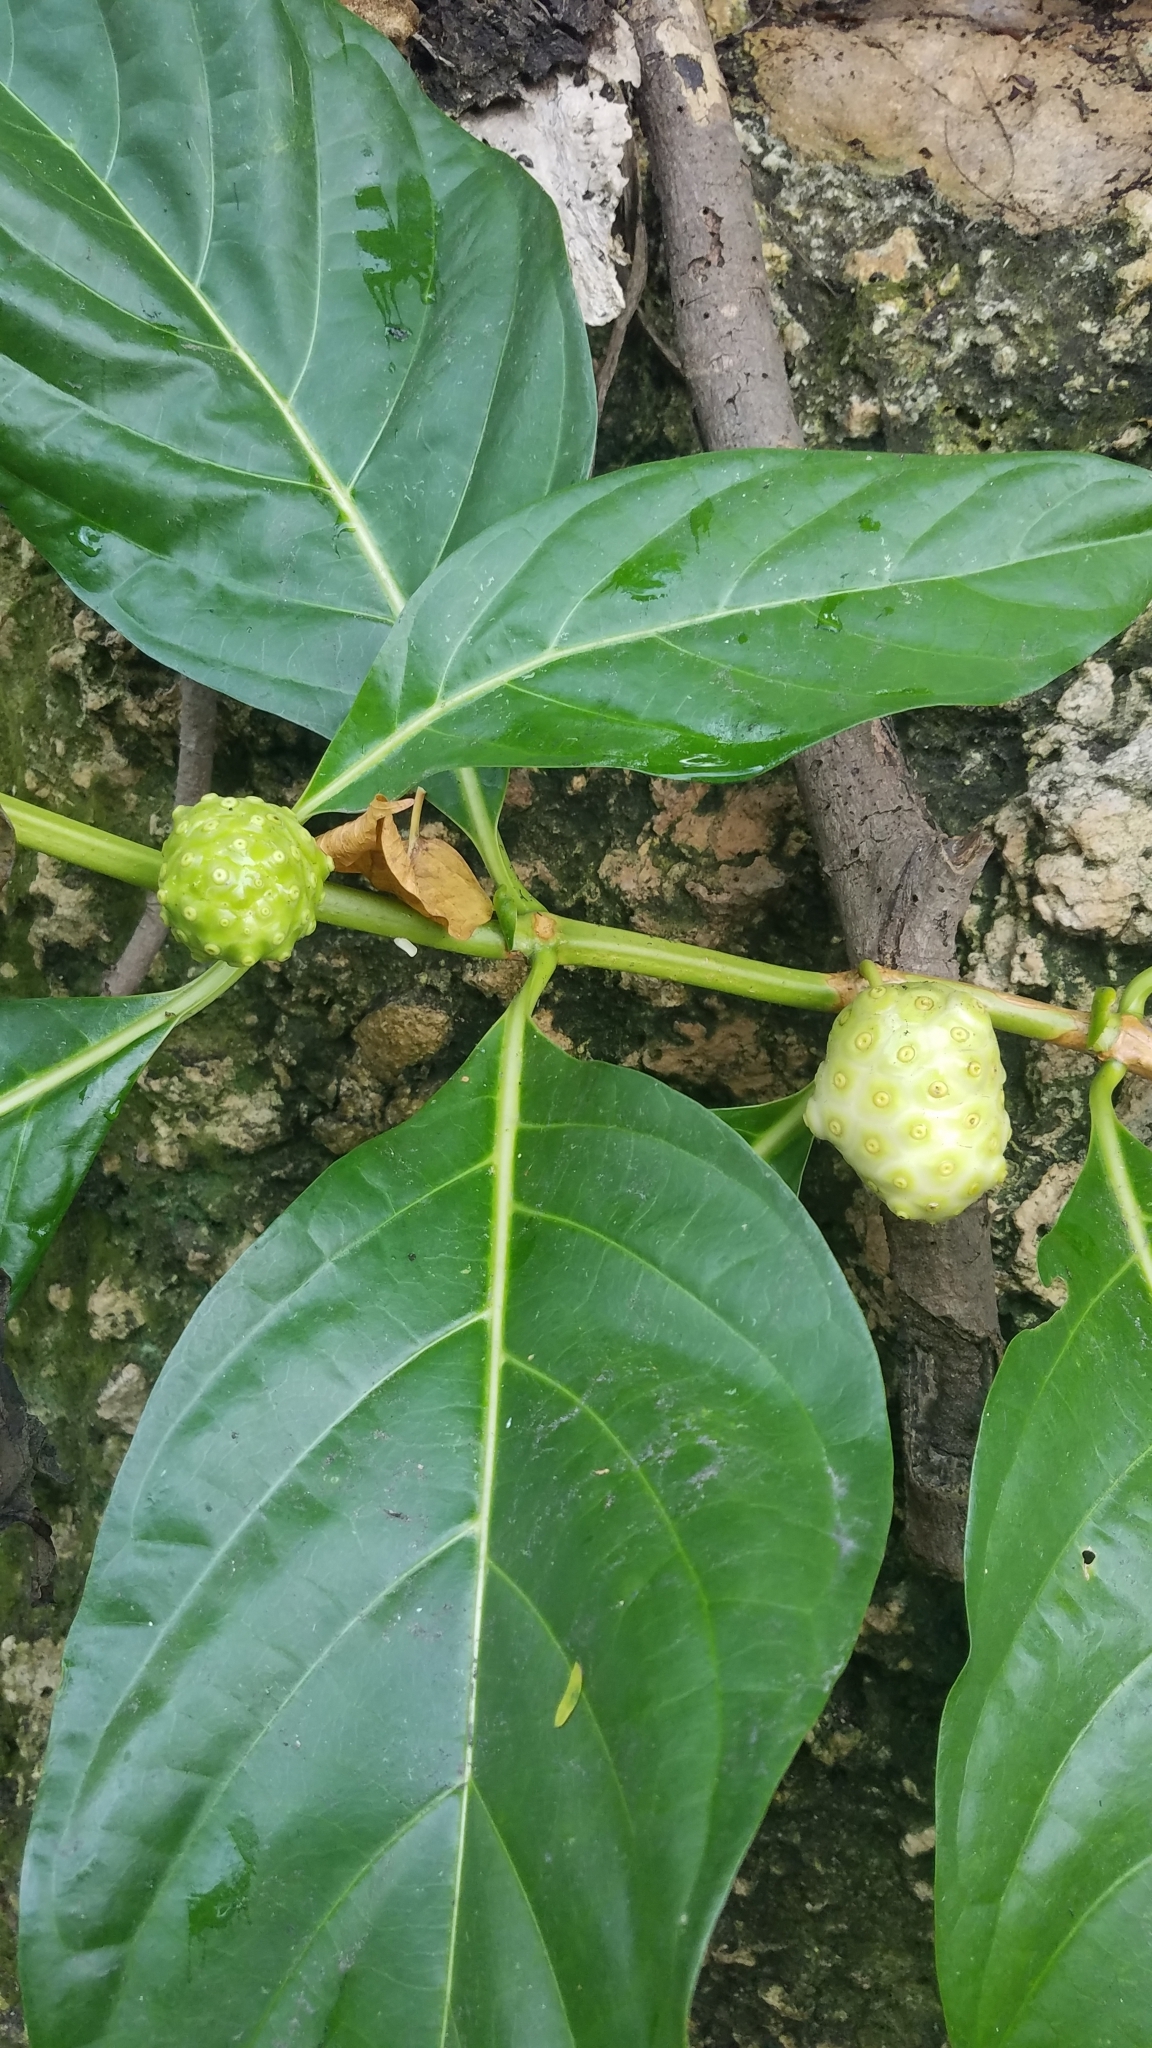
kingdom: Plantae
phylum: Tracheophyta
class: Magnoliopsida
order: Gentianales
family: Rubiaceae
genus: Morinda
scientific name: Morinda citrifolia
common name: Indian-mulberry
